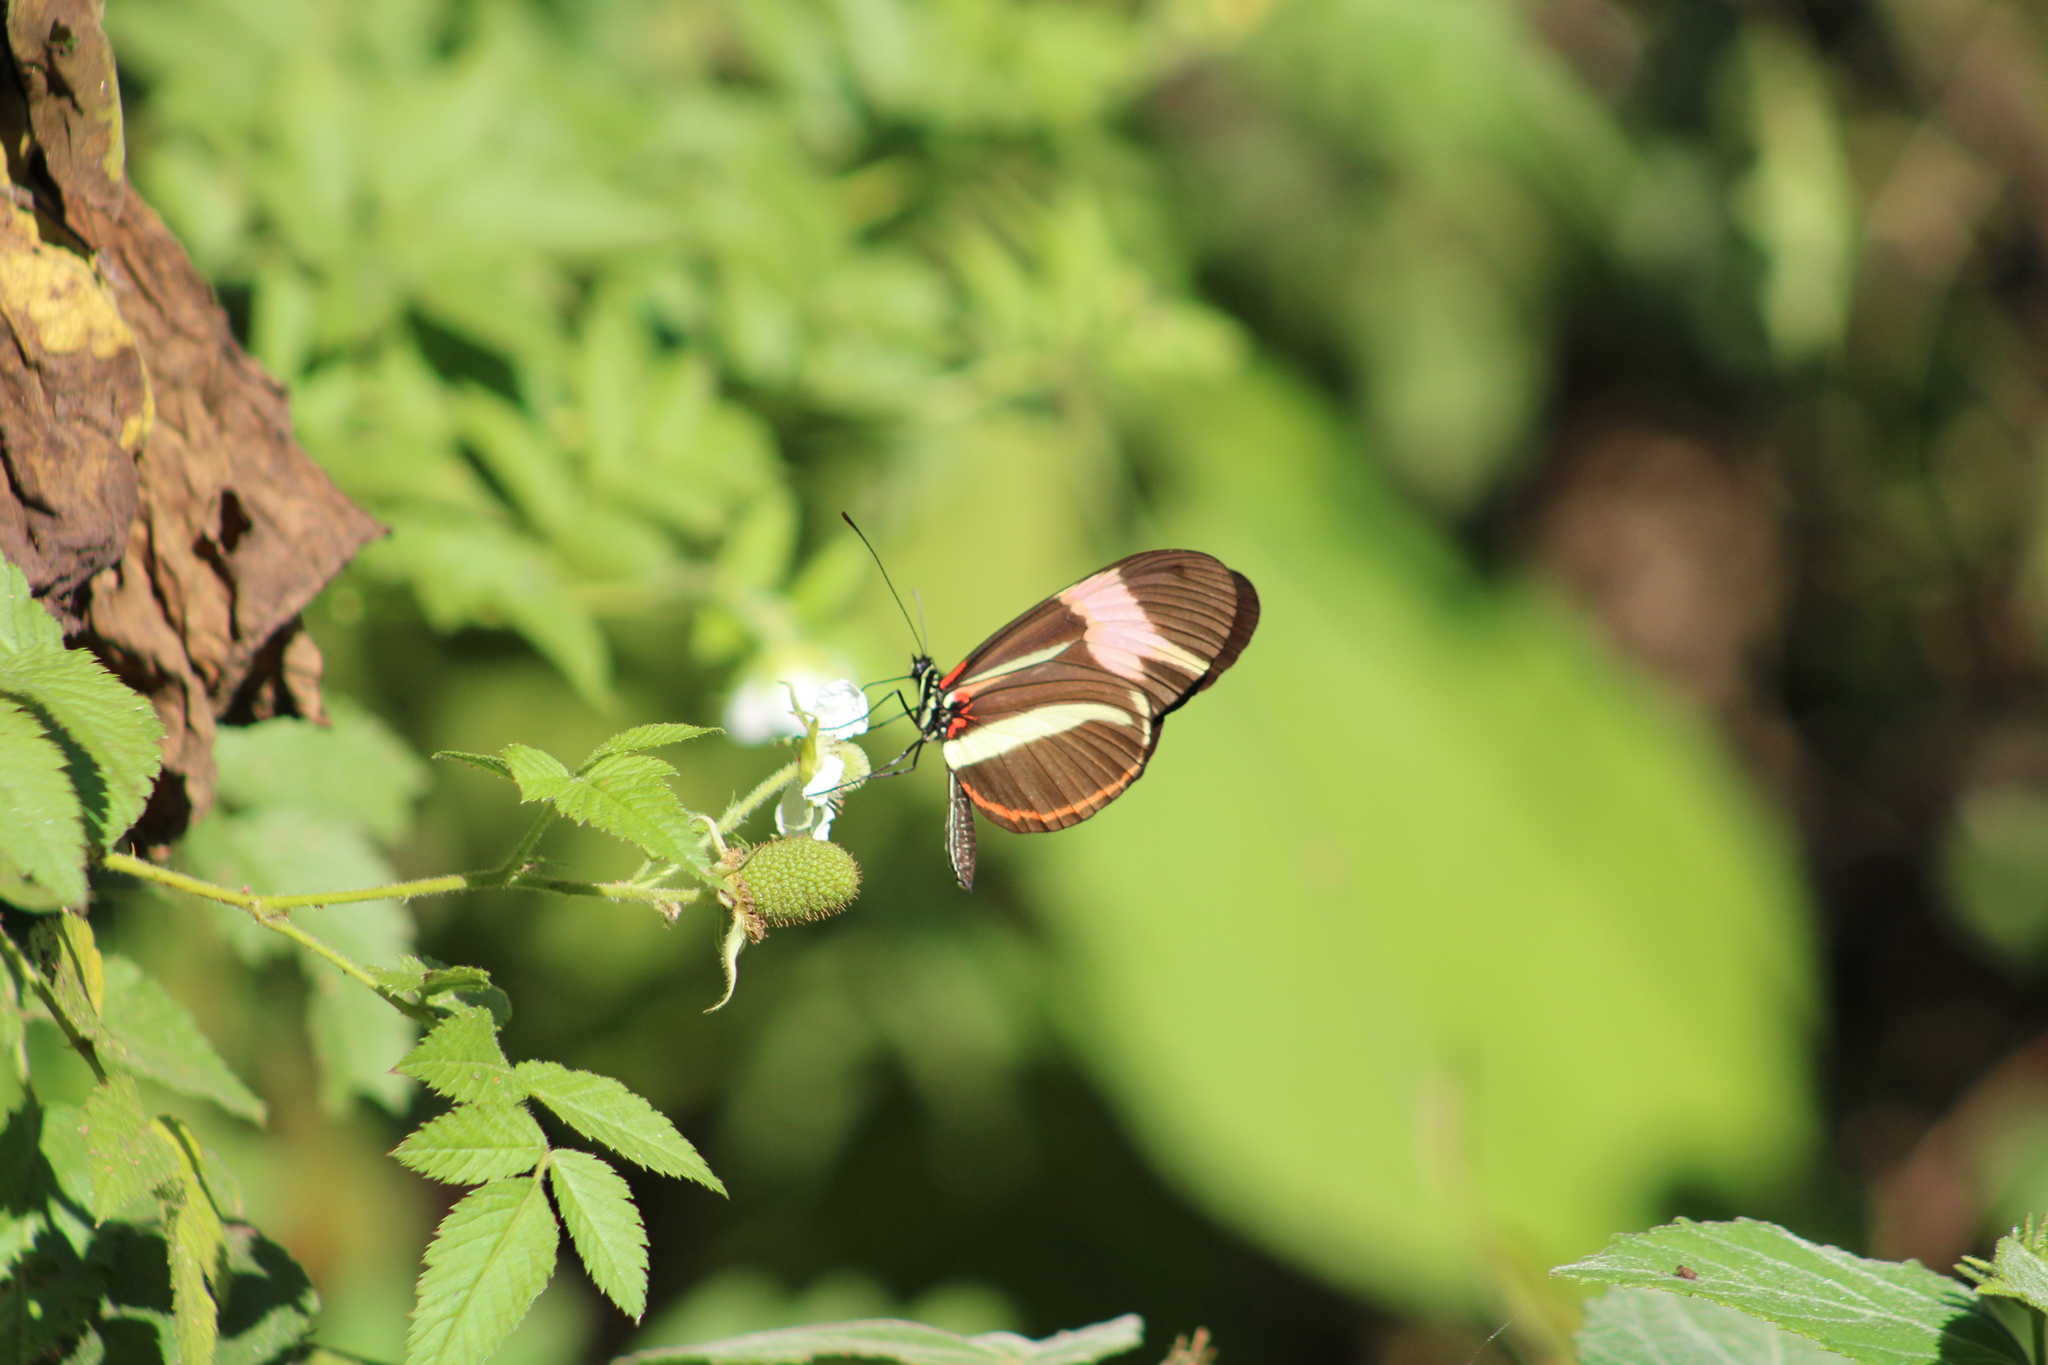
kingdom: Animalia
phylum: Arthropoda
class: Insecta
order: Lepidoptera
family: Nymphalidae
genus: Heliconius
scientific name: Heliconius besckei
